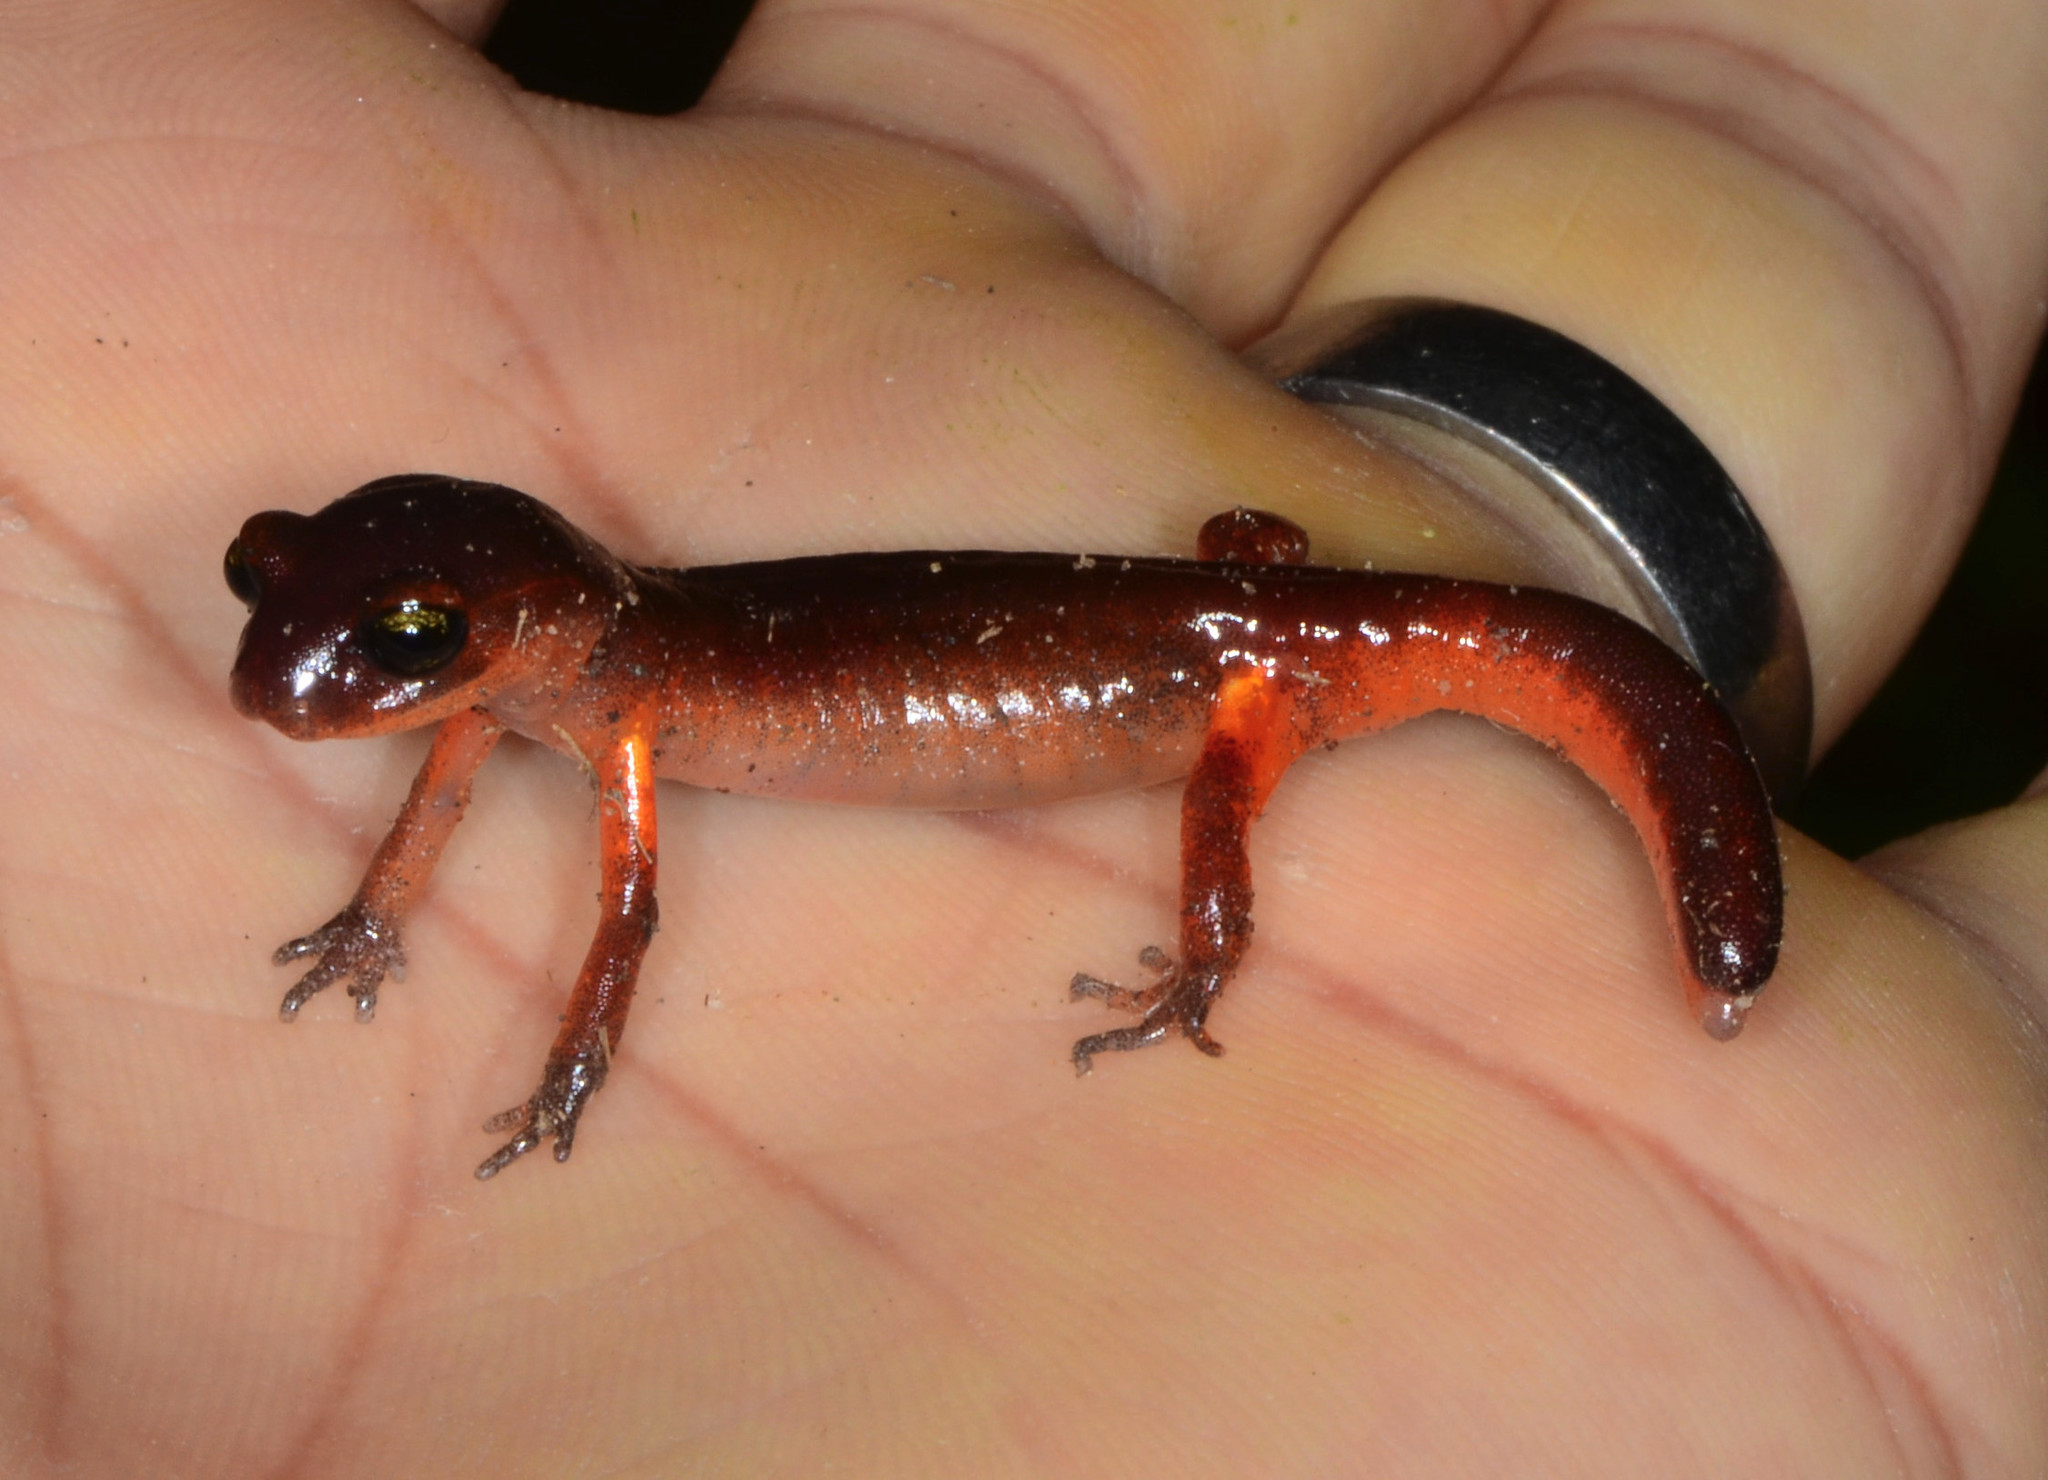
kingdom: Animalia
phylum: Chordata
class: Amphibia
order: Caudata
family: Plethodontidae
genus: Ensatina
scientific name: Ensatina eschscholtzii
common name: Ensatina
